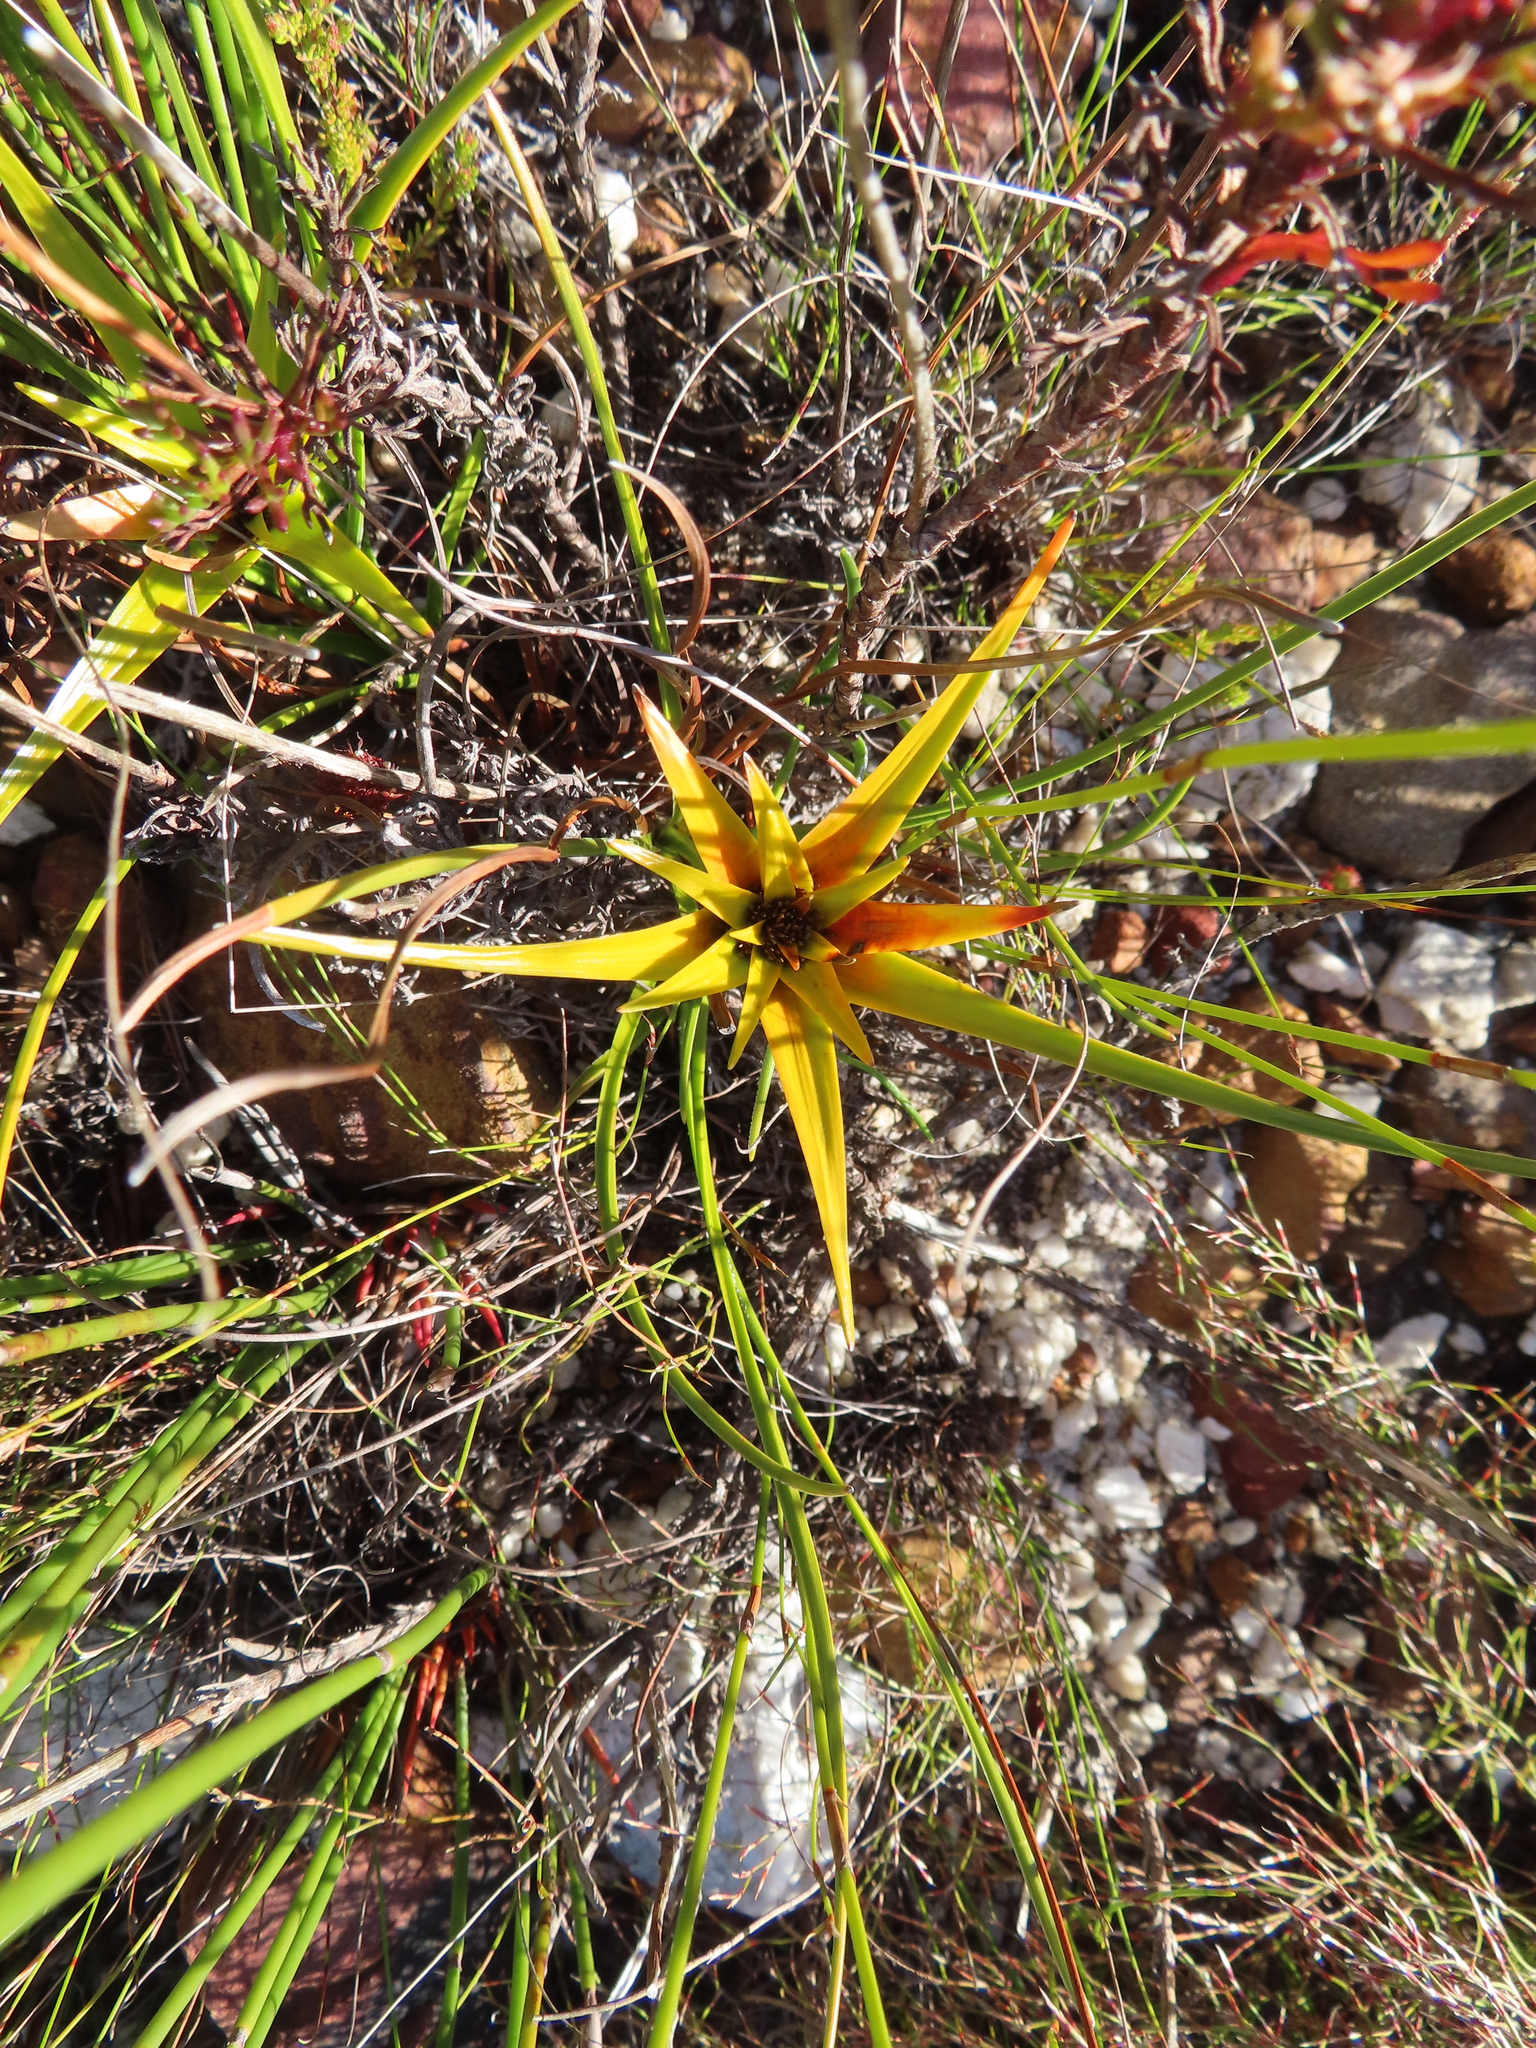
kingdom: Plantae
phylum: Tracheophyta
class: Liliopsida
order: Poales
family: Cyperaceae
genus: Ficinia
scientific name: Ficinia radiata
